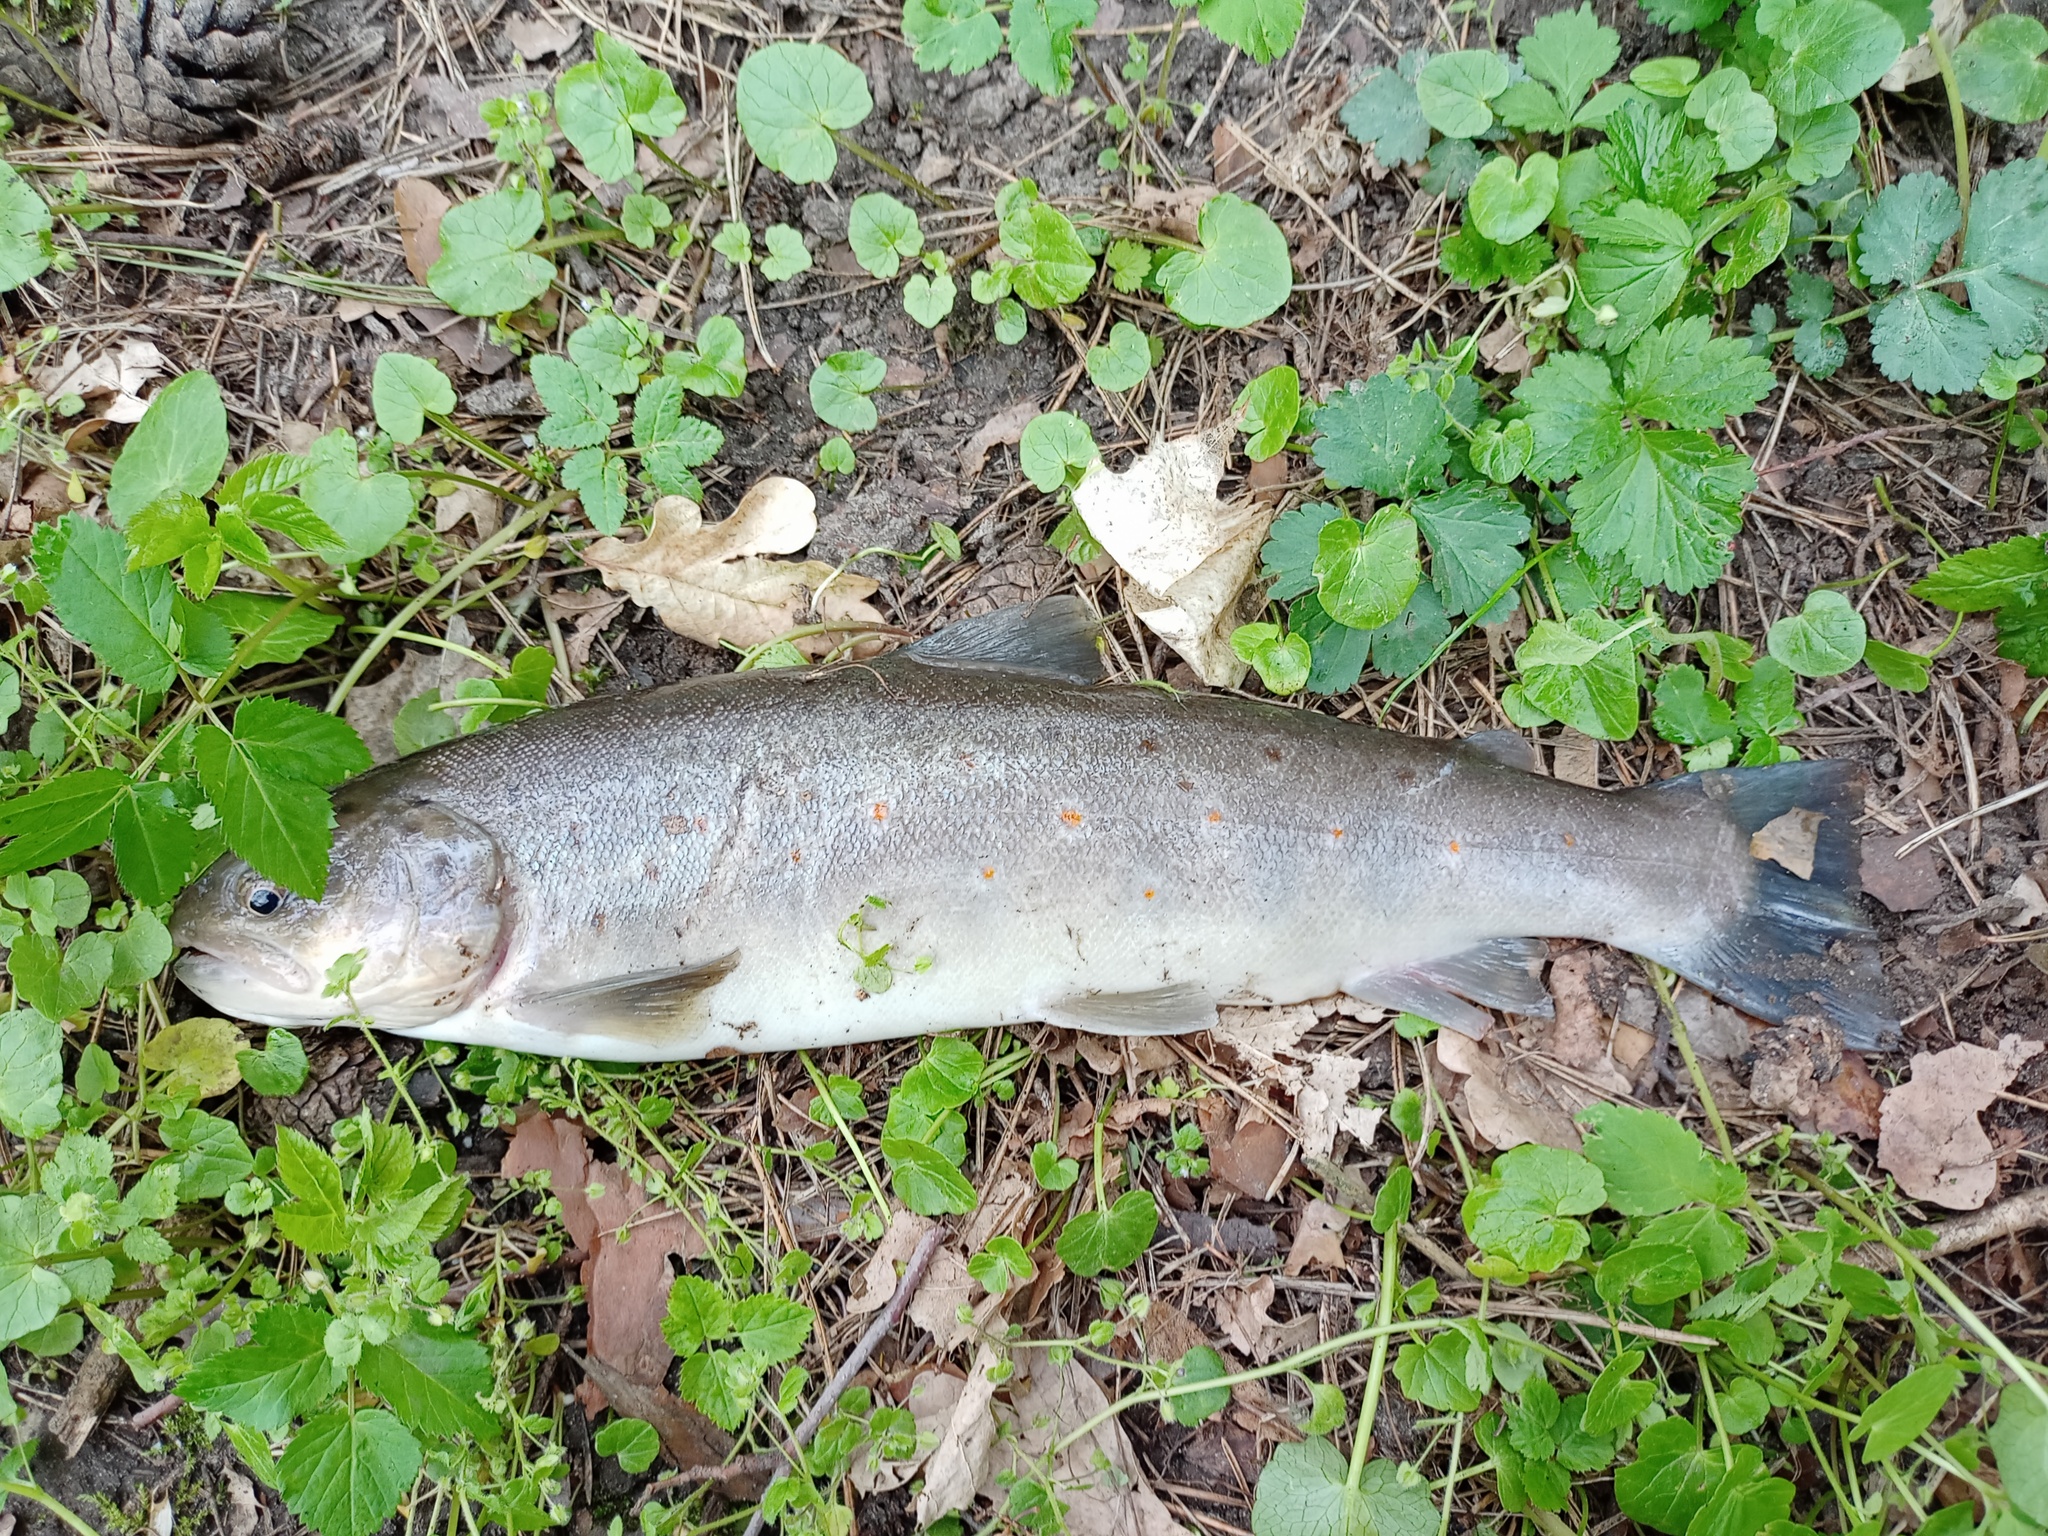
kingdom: Animalia
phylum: Chordata
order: Salmoniformes
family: Salmonidae
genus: Salmo
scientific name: Salmo trutta
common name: Brown trout
